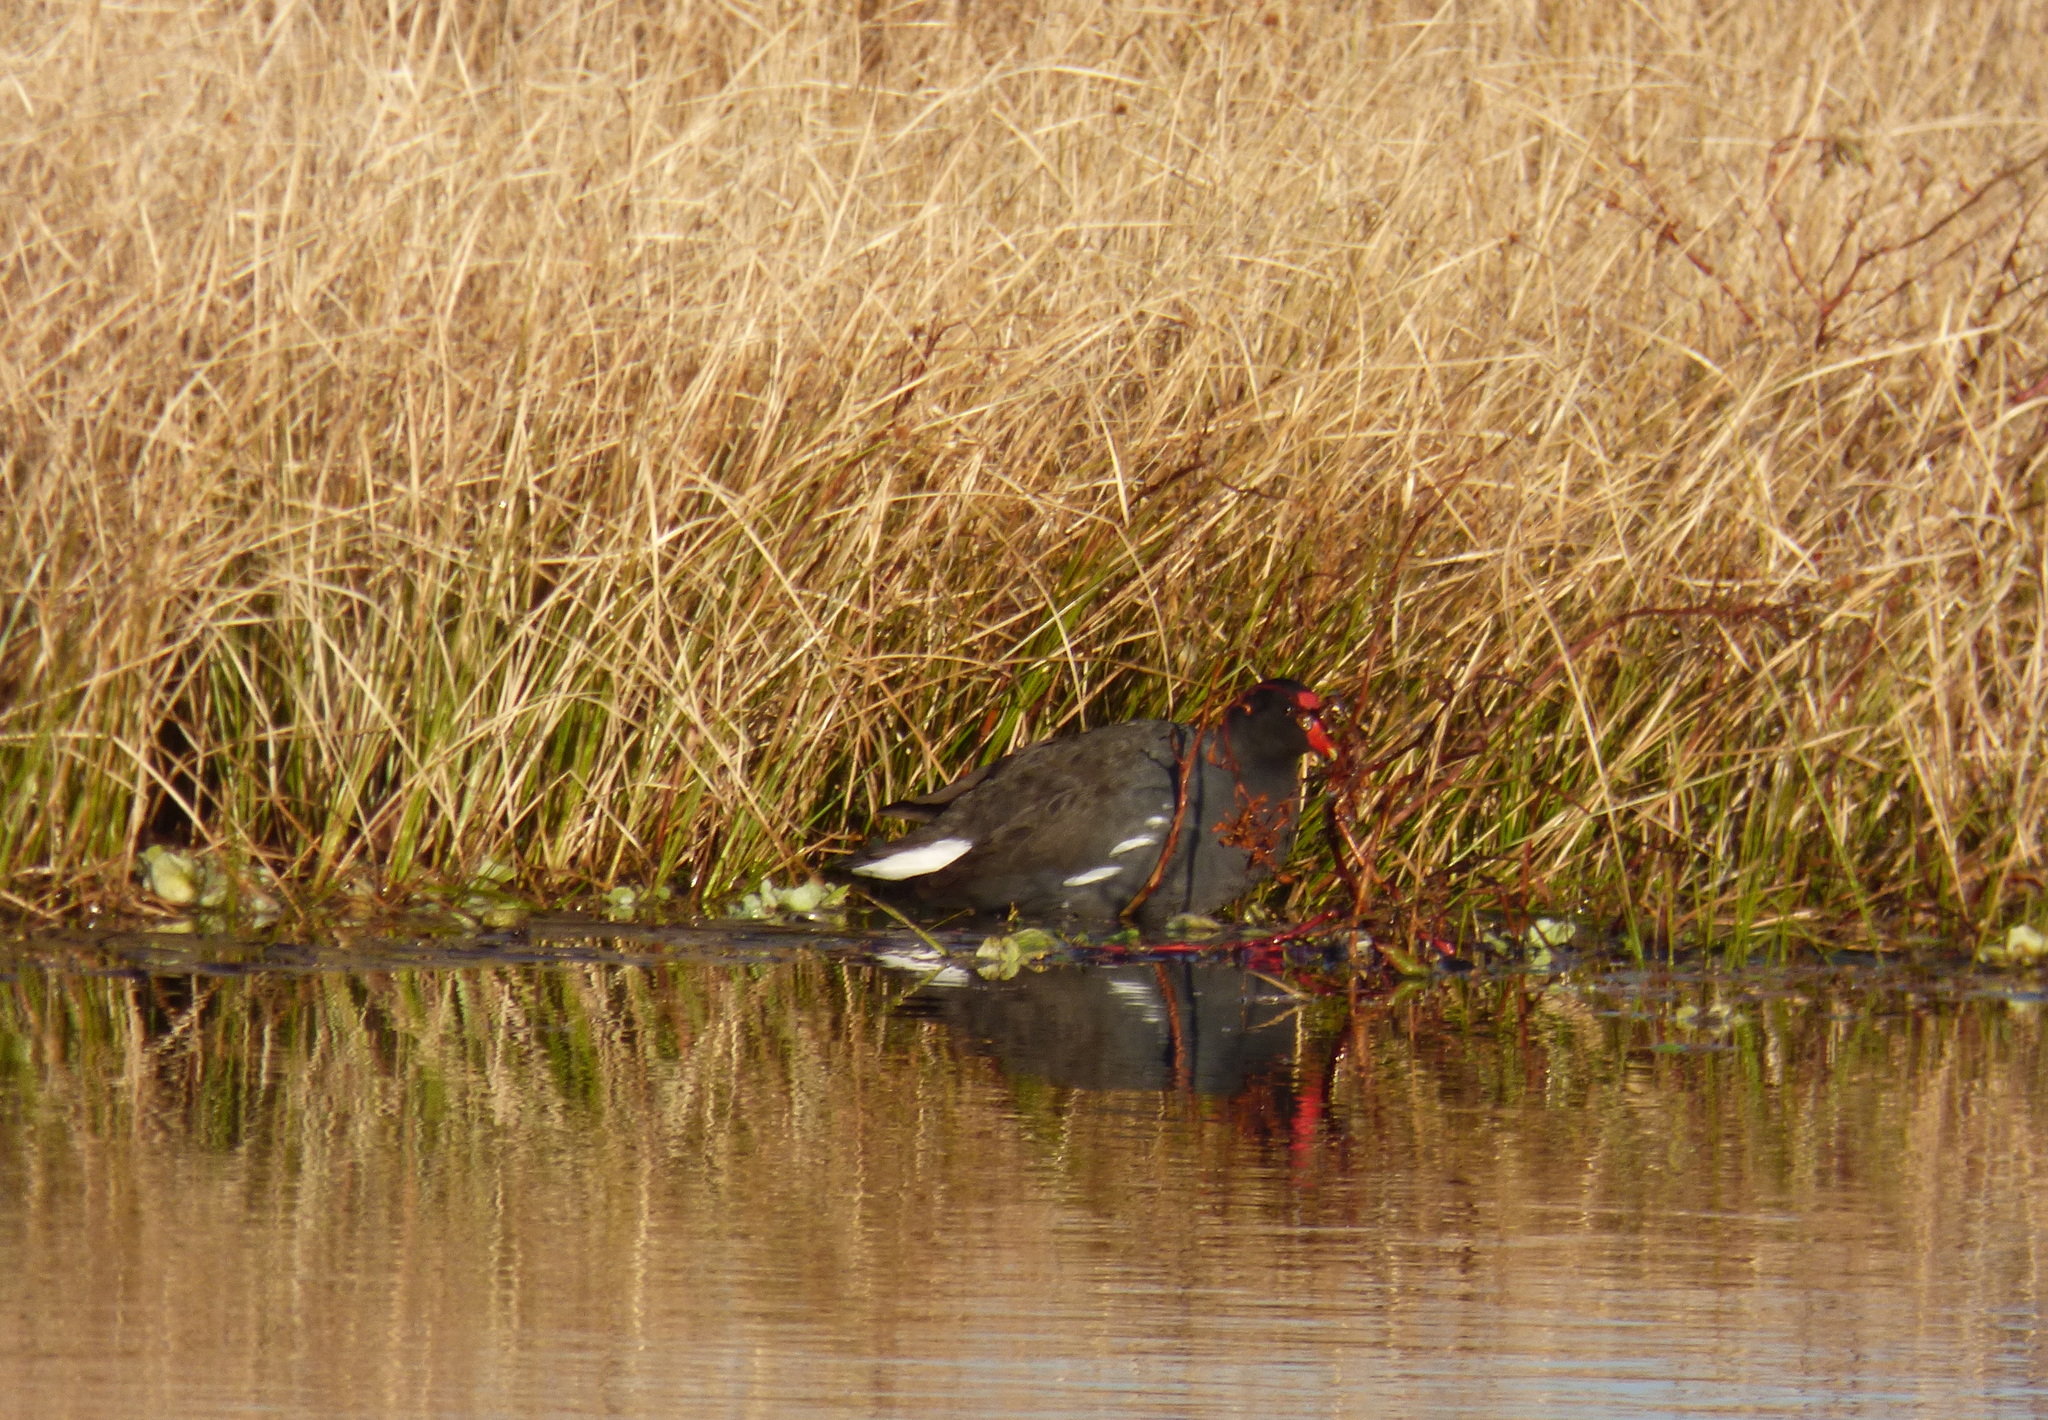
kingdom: Animalia
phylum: Chordata
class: Aves
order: Gruiformes
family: Rallidae
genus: Gallinula
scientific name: Gallinula chloropus
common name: Common moorhen
